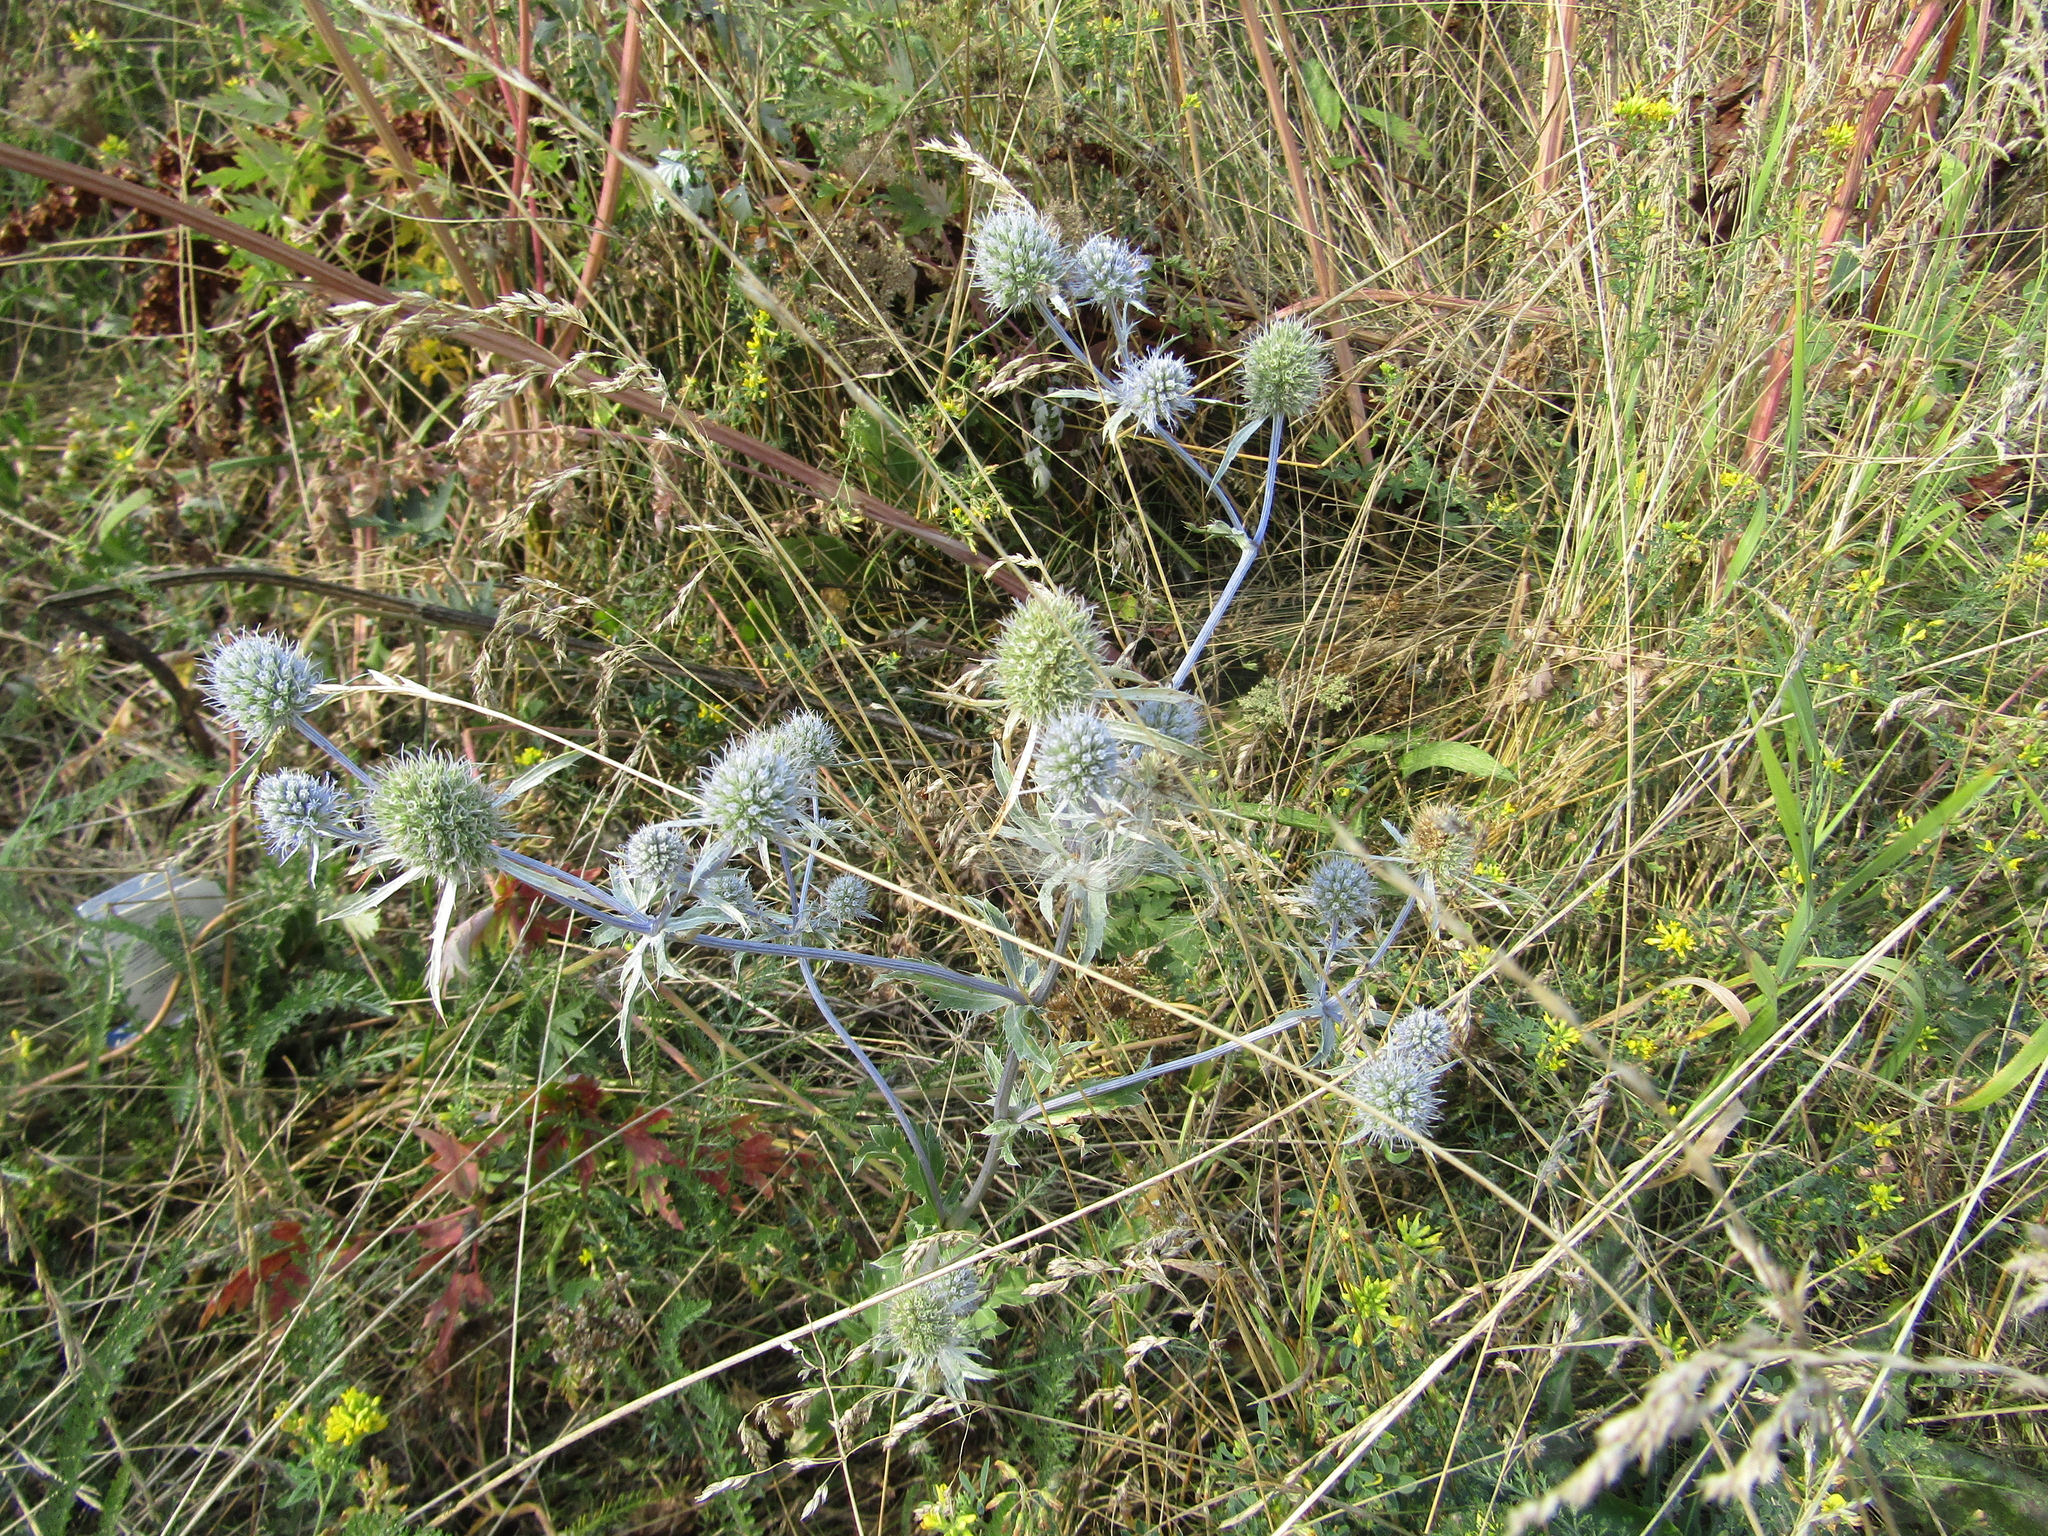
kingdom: Plantae
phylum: Tracheophyta
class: Magnoliopsida
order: Apiales
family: Apiaceae
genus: Eryngium
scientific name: Eryngium planum
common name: Blue eryngo
